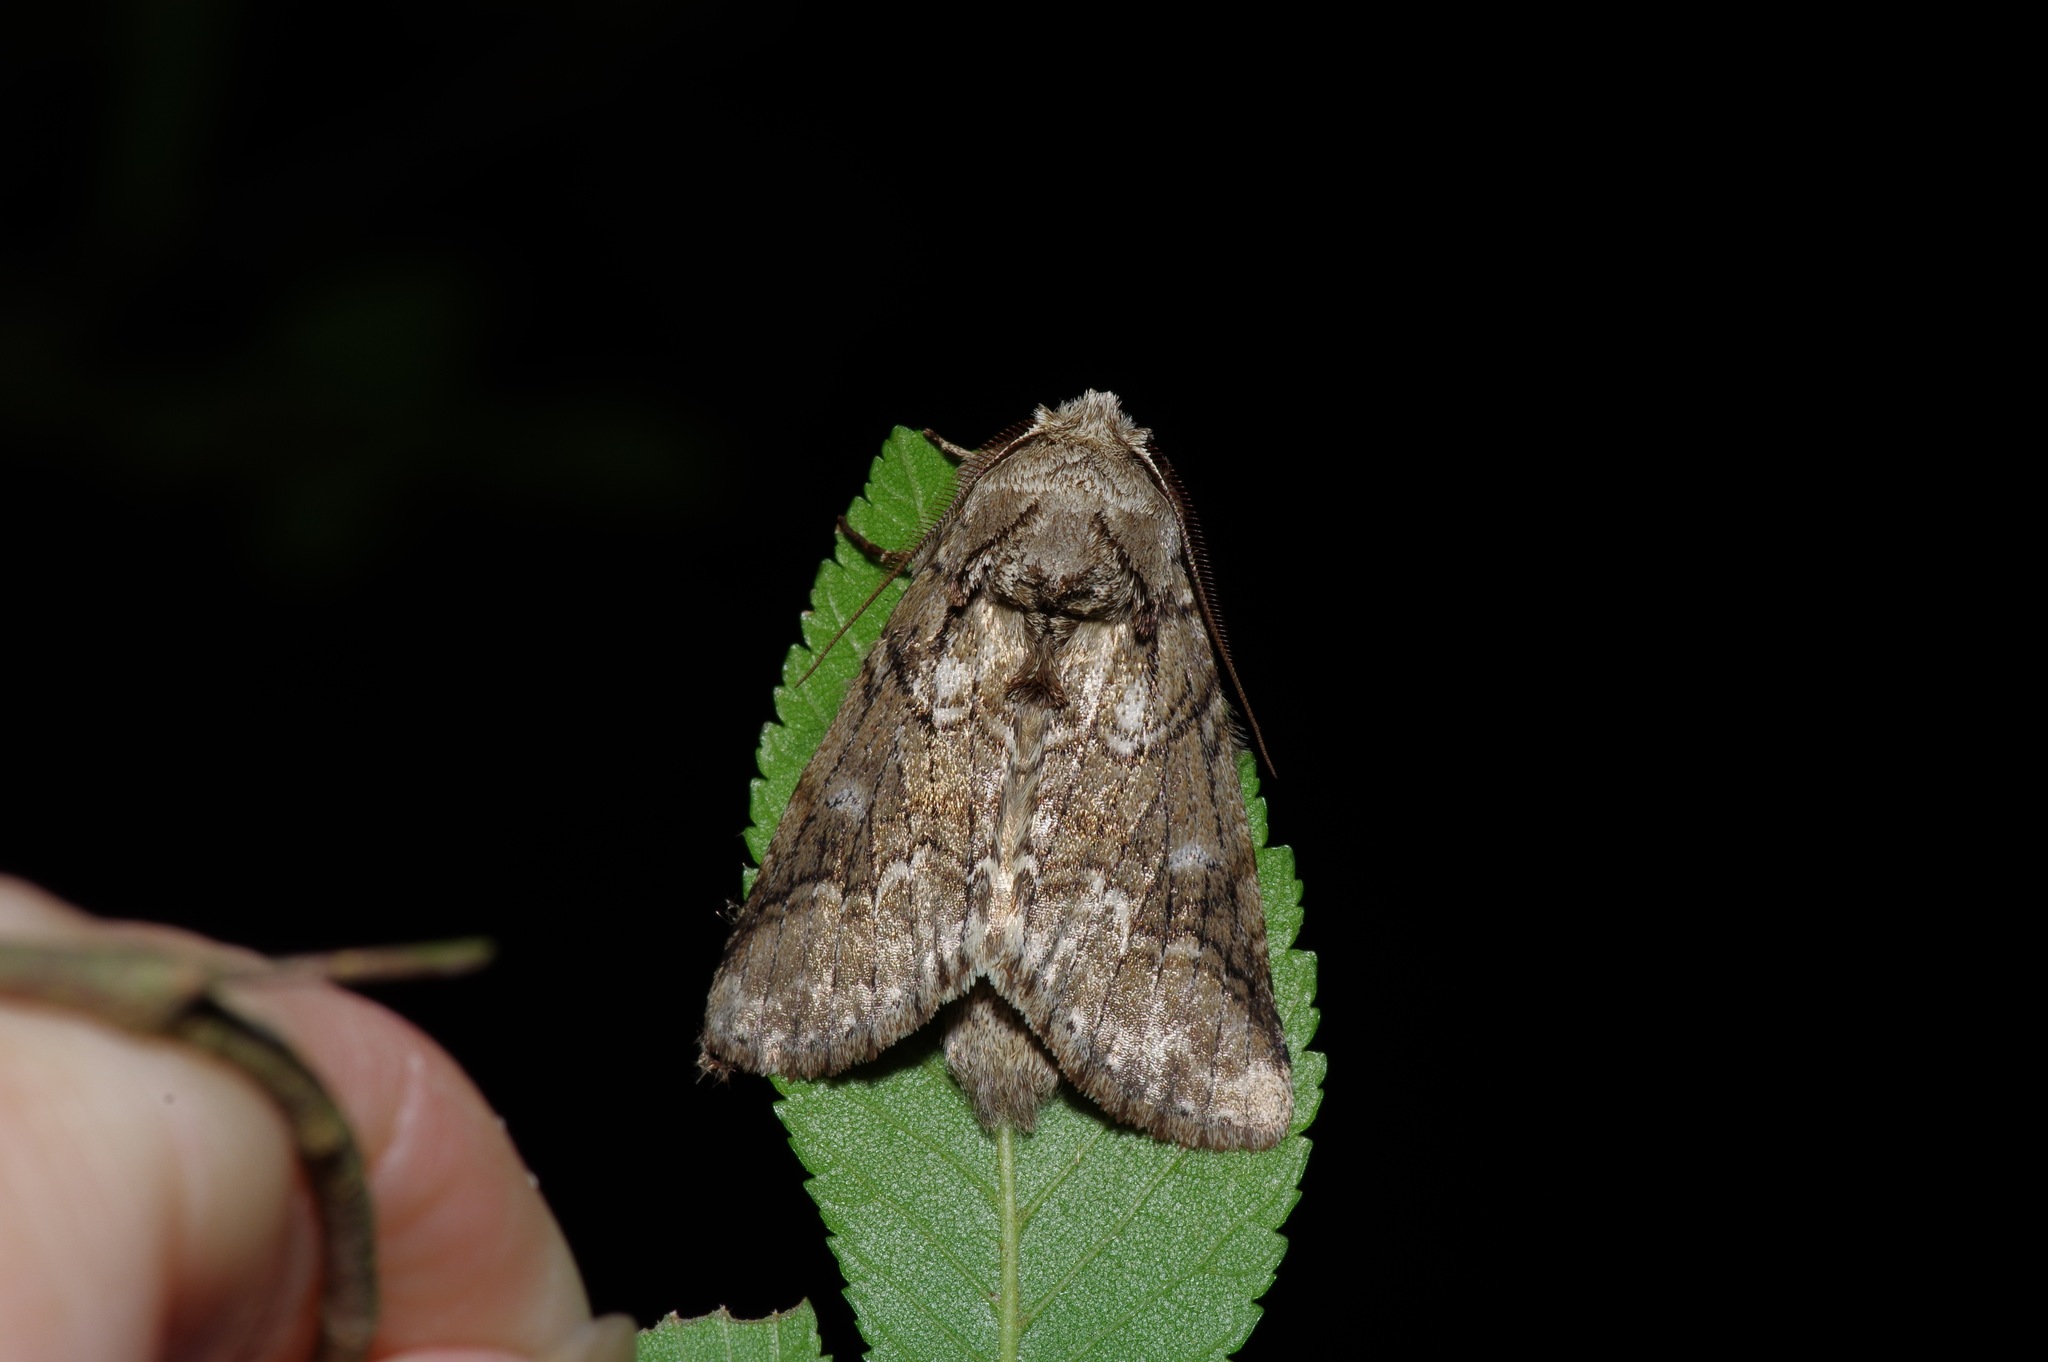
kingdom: Animalia
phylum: Arthropoda
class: Insecta
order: Lepidoptera
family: Notodontidae
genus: Lochmaeus
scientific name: Lochmaeus bilineata
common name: Double-lined prominent
